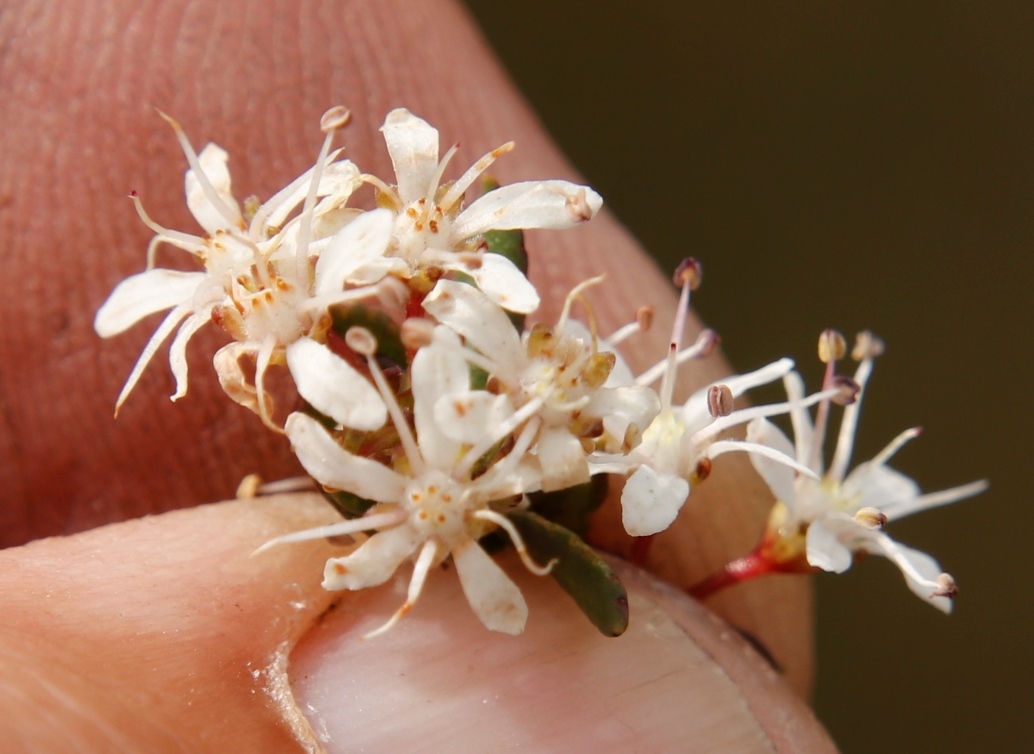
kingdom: Plantae
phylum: Tracheophyta
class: Magnoliopsida
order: Sapindales
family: Rutaceae
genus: Agathosma
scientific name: Agathosma mundtii
